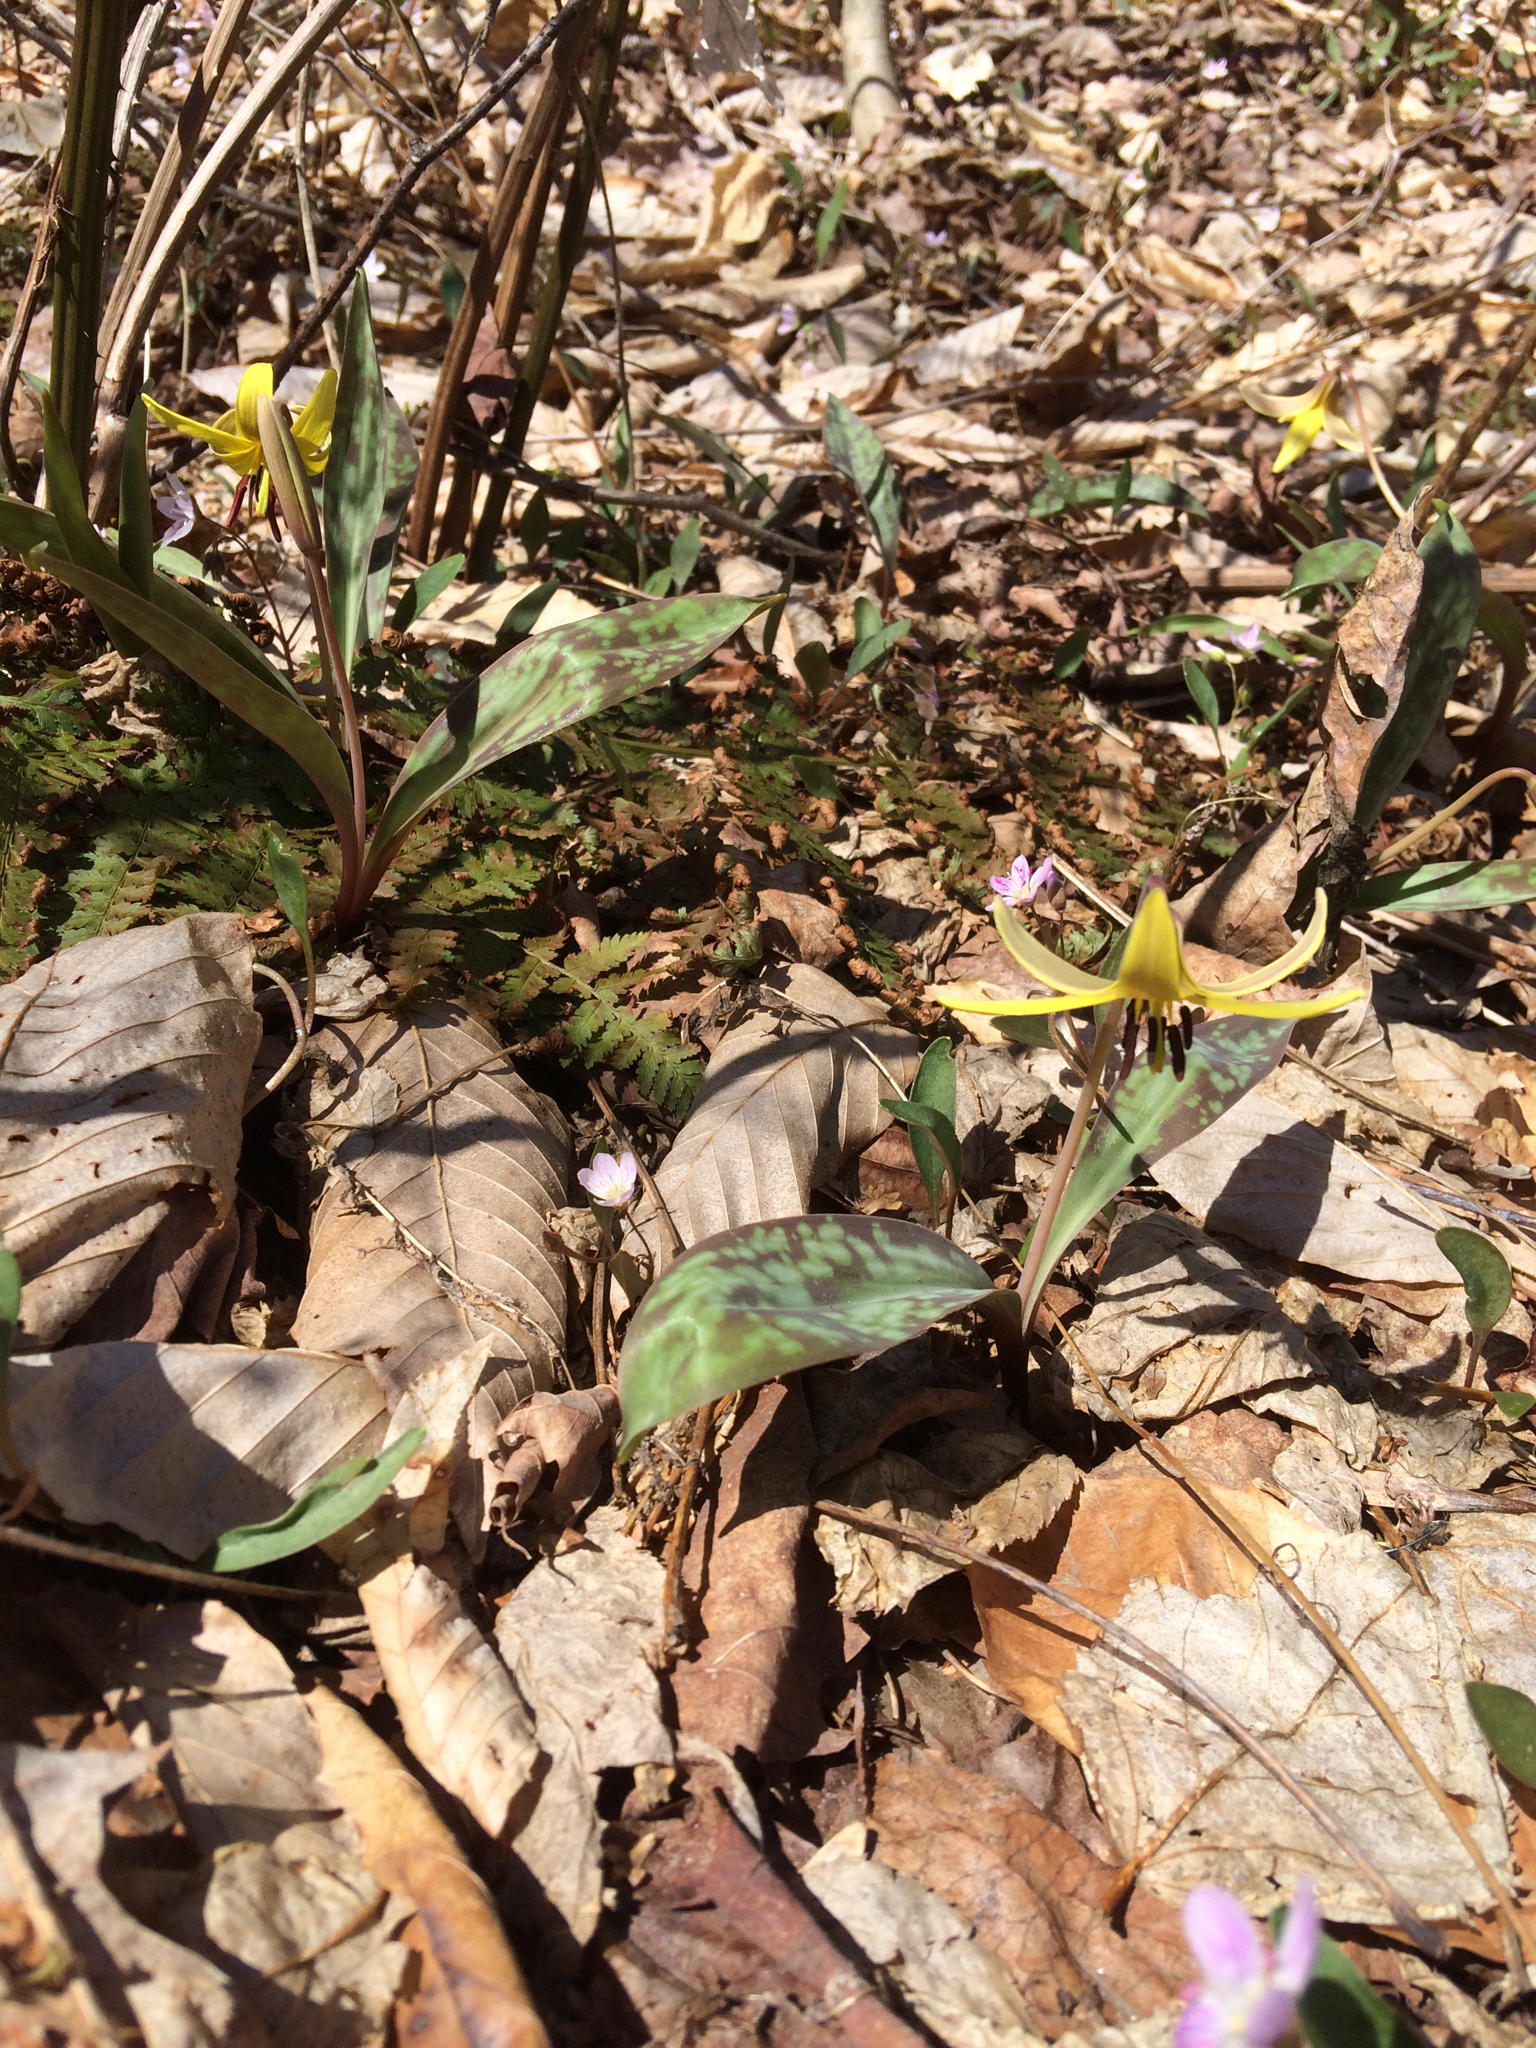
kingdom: Plantae
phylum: Tracheophyta
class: Liliopsida
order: Liliales
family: Liliaceae
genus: Erythronium
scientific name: Erythronium americanum
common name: Yellow adder's-tongue
